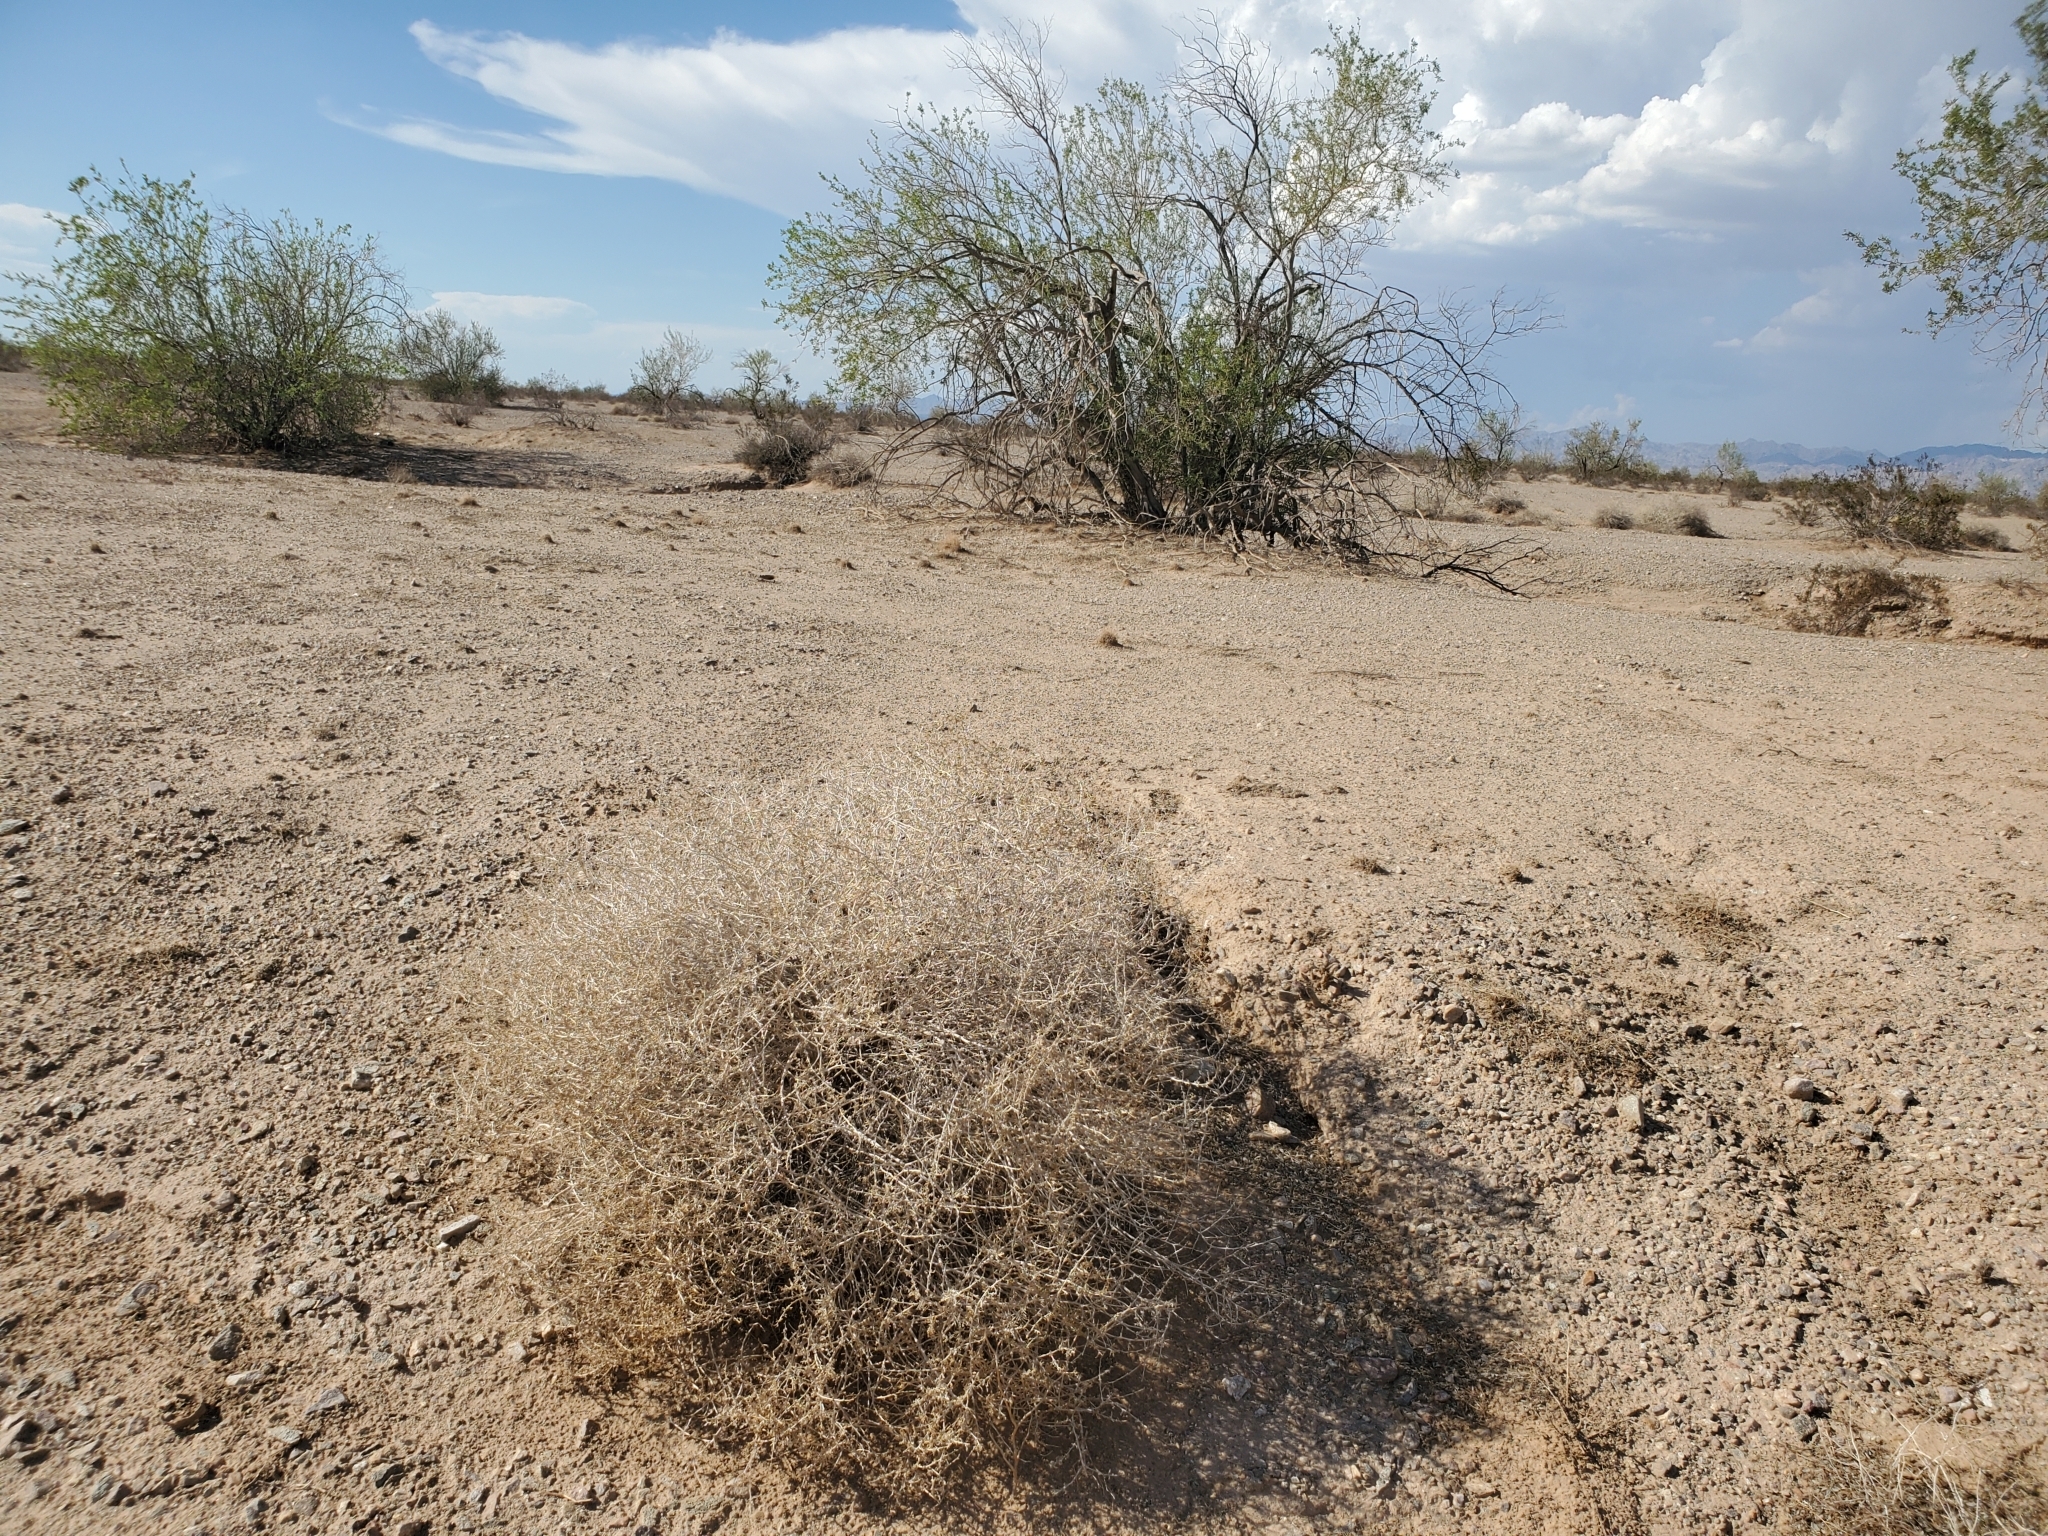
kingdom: Plantae
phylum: Tracheophyta
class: Magnoliopsida
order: Asterales
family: Asteraceae
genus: Ambrosia
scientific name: Ambrosia dumosa
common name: Bur-sage
